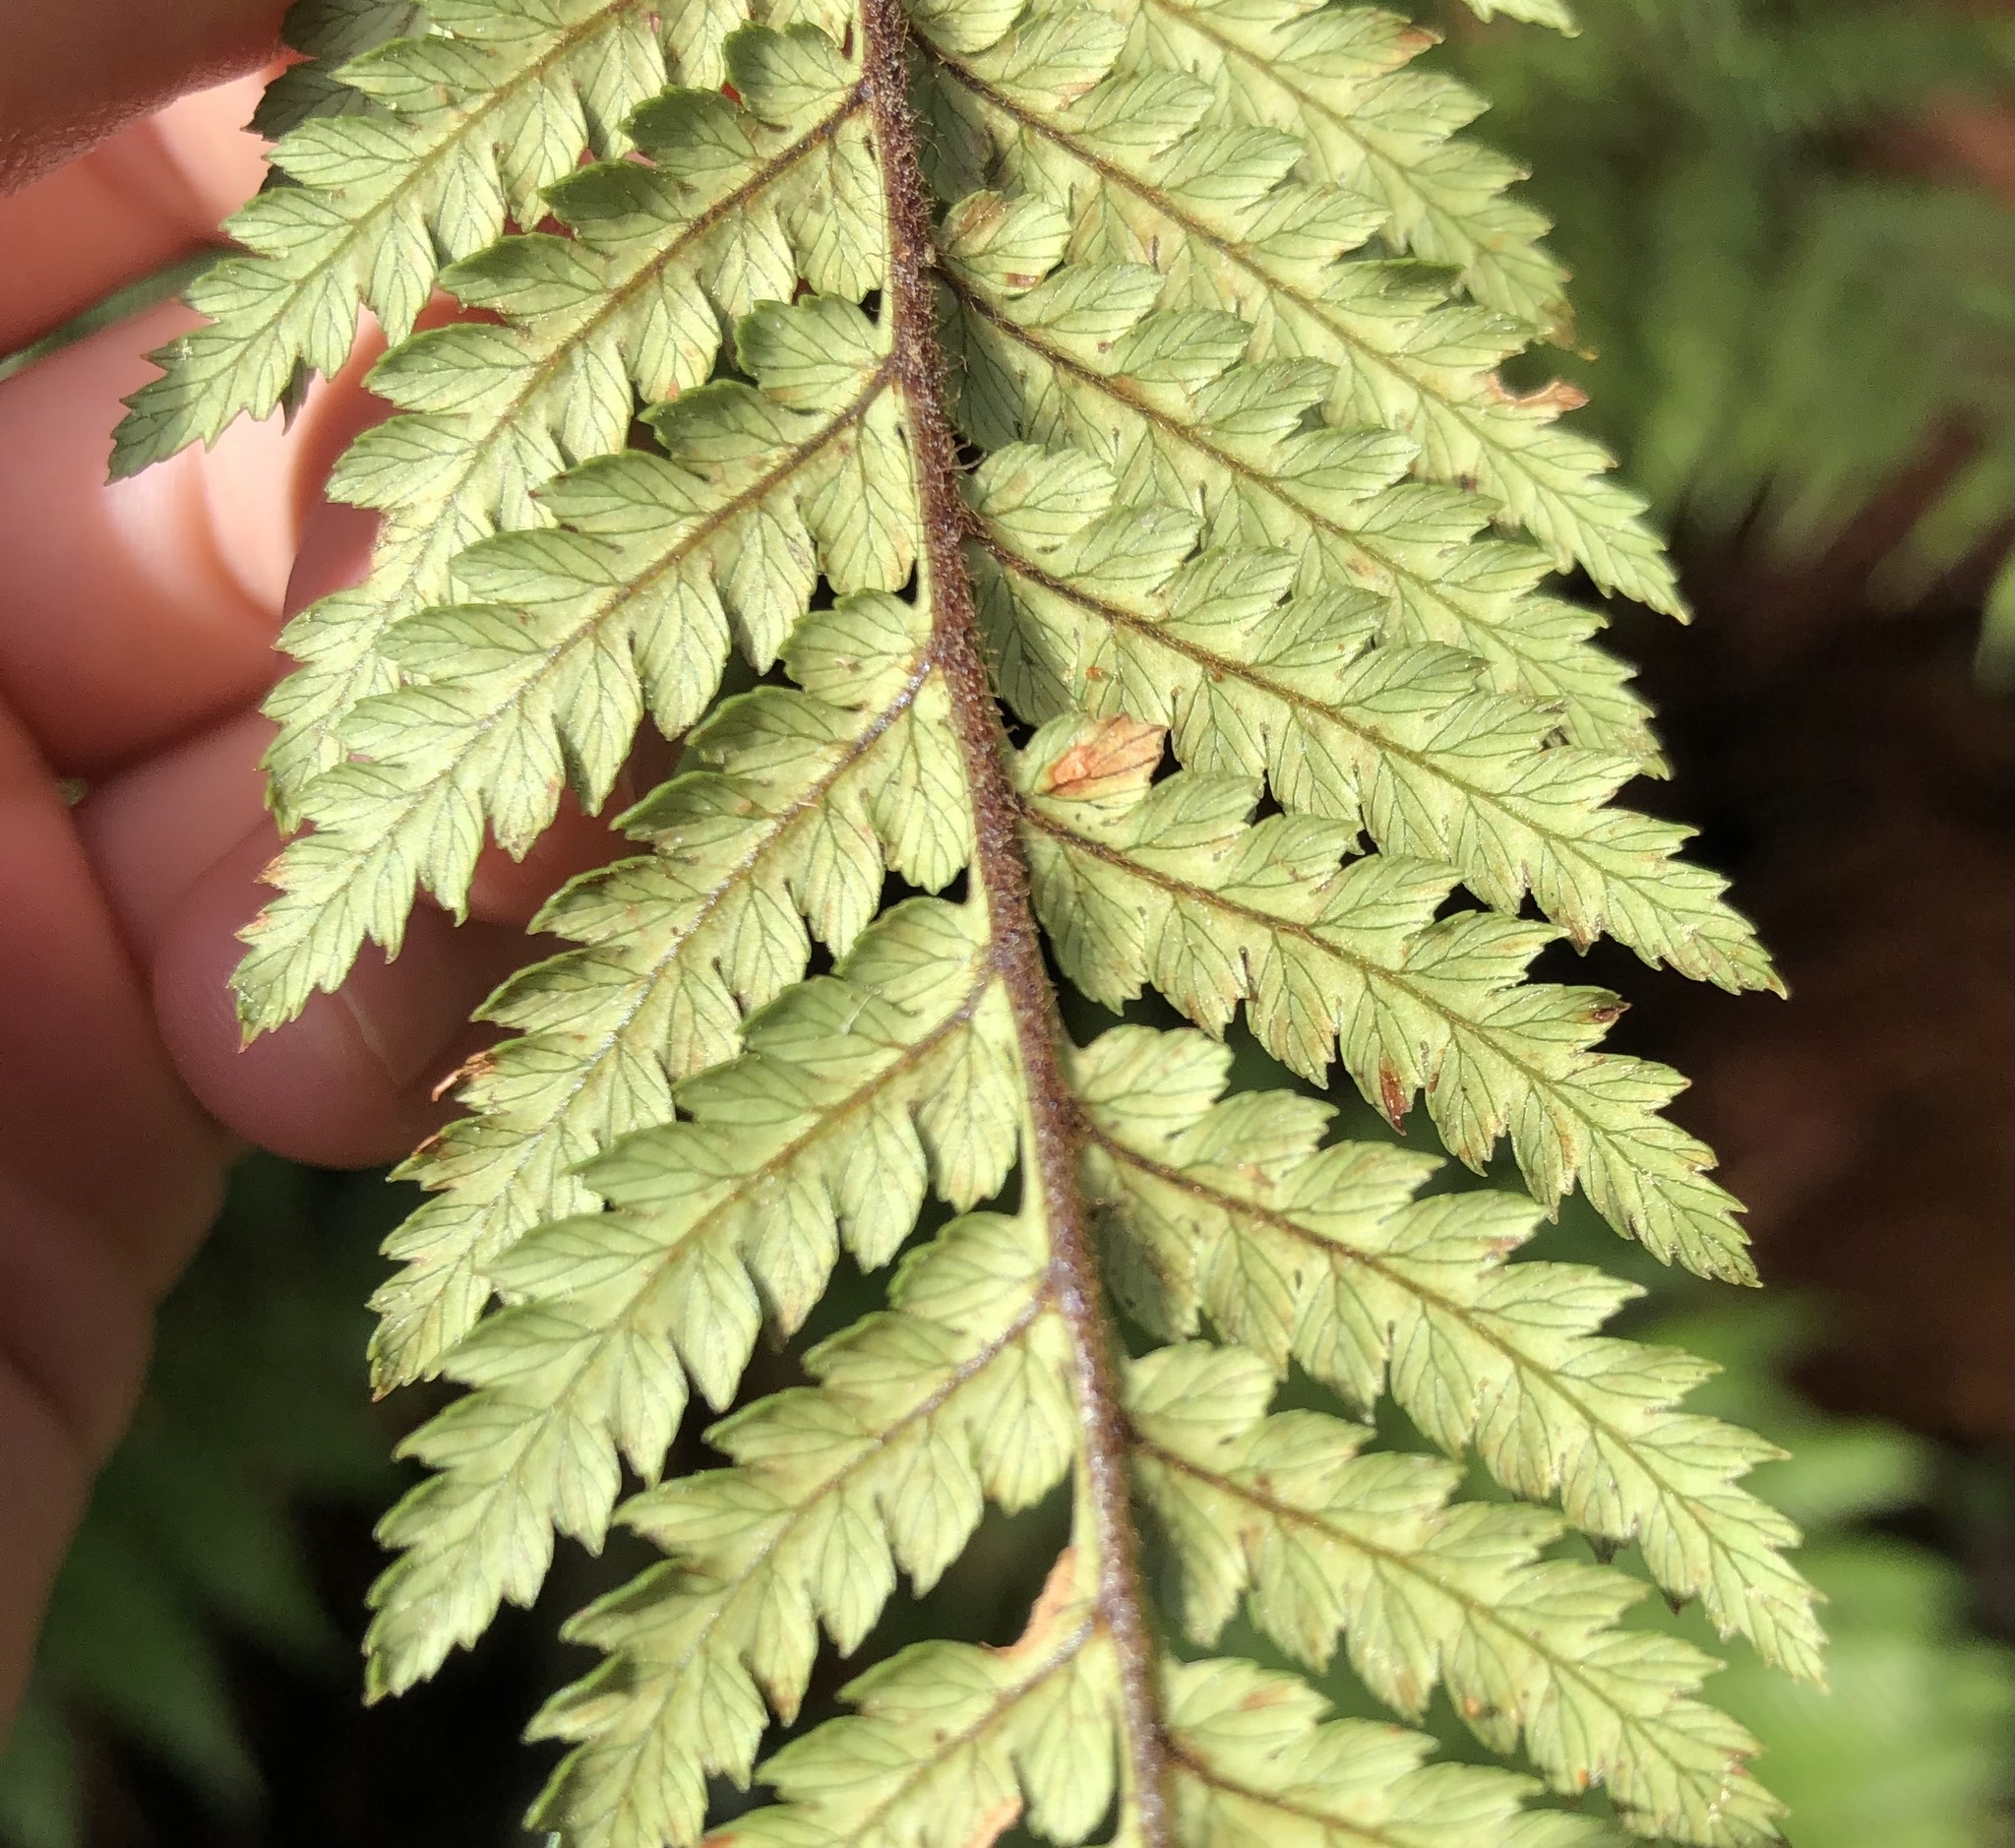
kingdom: Plantae
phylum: Tracheophyta
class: Polypodiopsida
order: Cyatheales
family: Dicksoniaceae
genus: Dicksonia
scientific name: Dicksonia squarrosa
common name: Hard treefern
